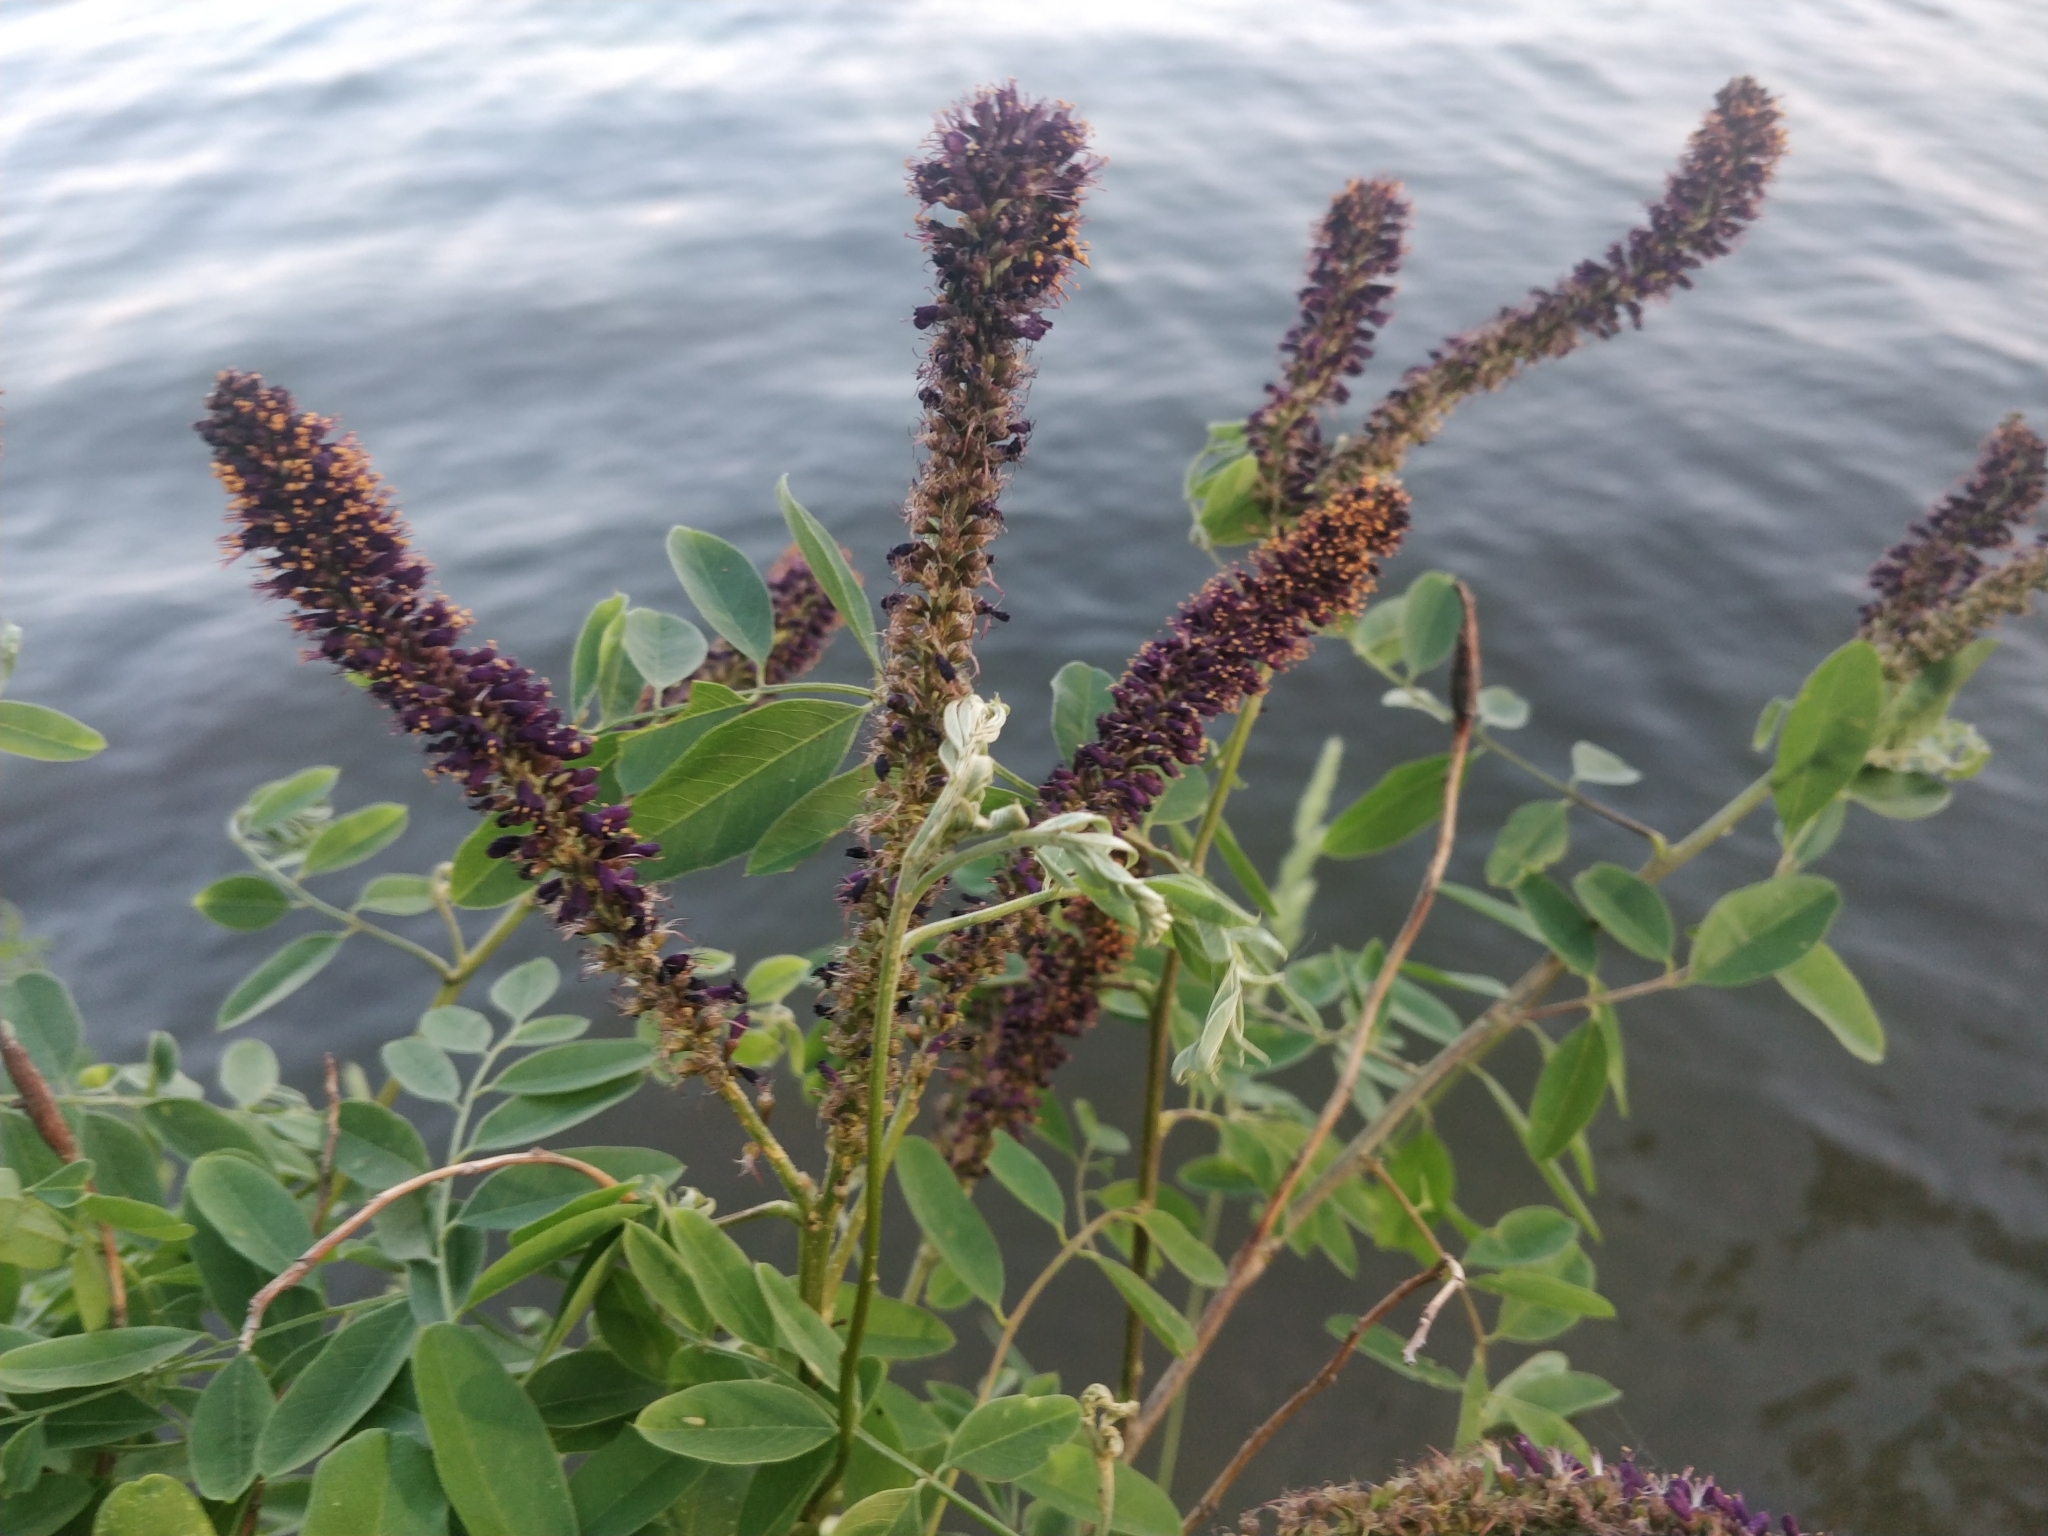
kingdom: Plantae
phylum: Tracheophyta
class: Magnoliopsida
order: Fabales
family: Fabaceae
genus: Amorpha
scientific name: Amorpha fruticosa
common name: False indigo
